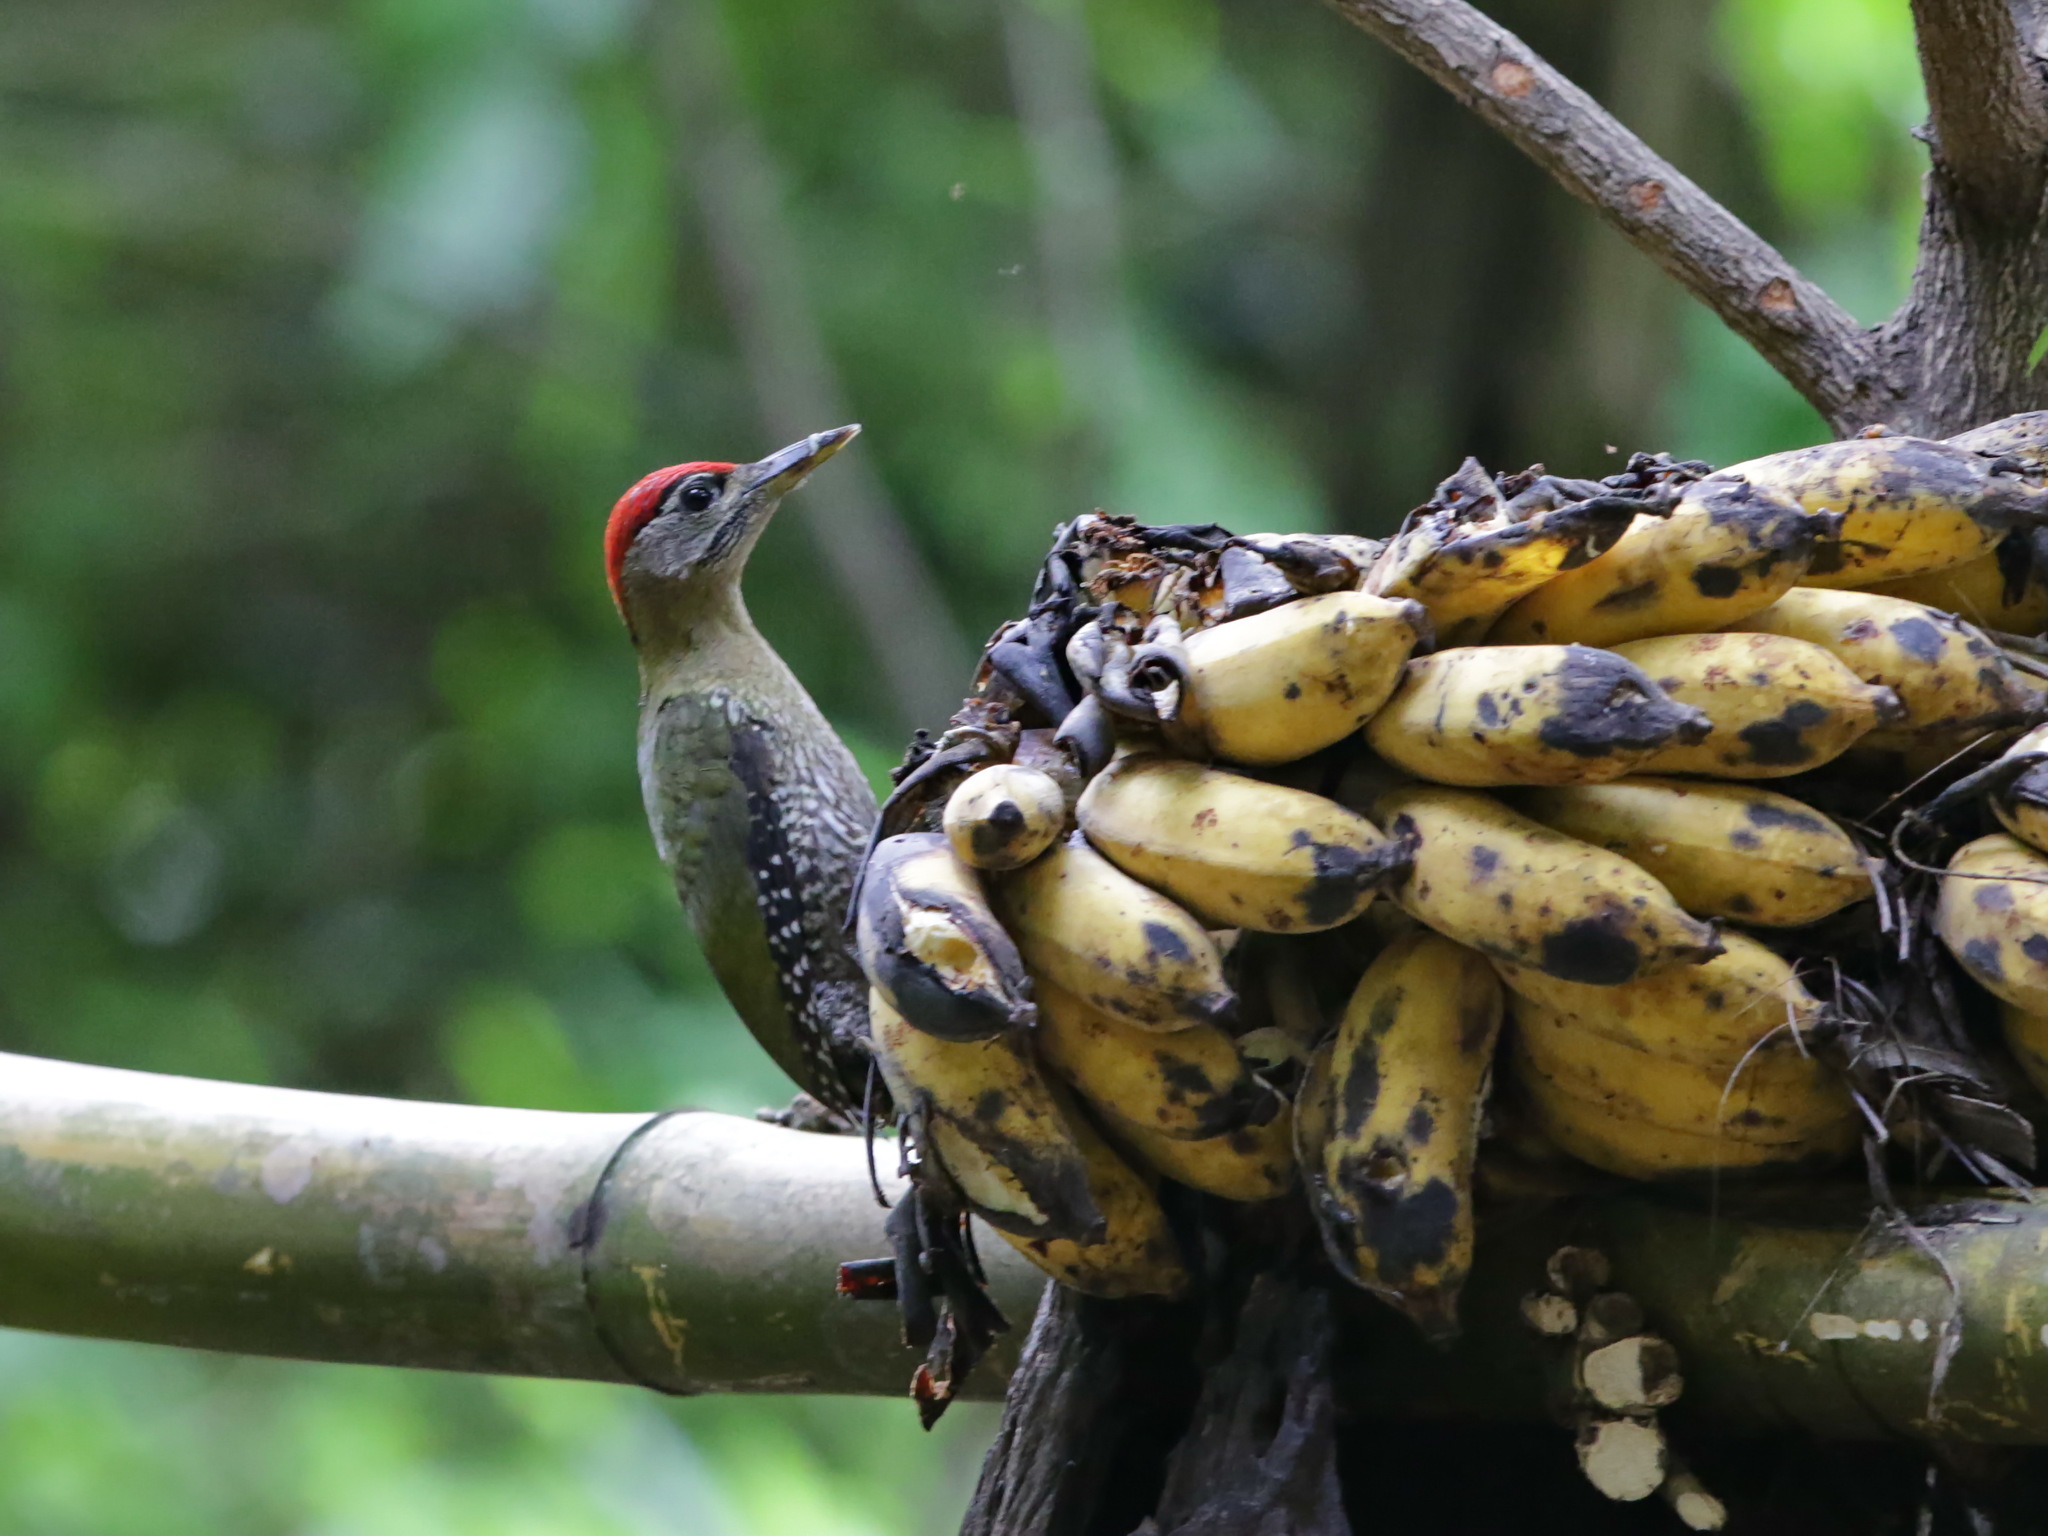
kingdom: Animalia
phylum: Chordata
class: Aves
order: Piciformes
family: Picidae
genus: Picus
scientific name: Picus viridanus
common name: Streak-breasted woodpecker
